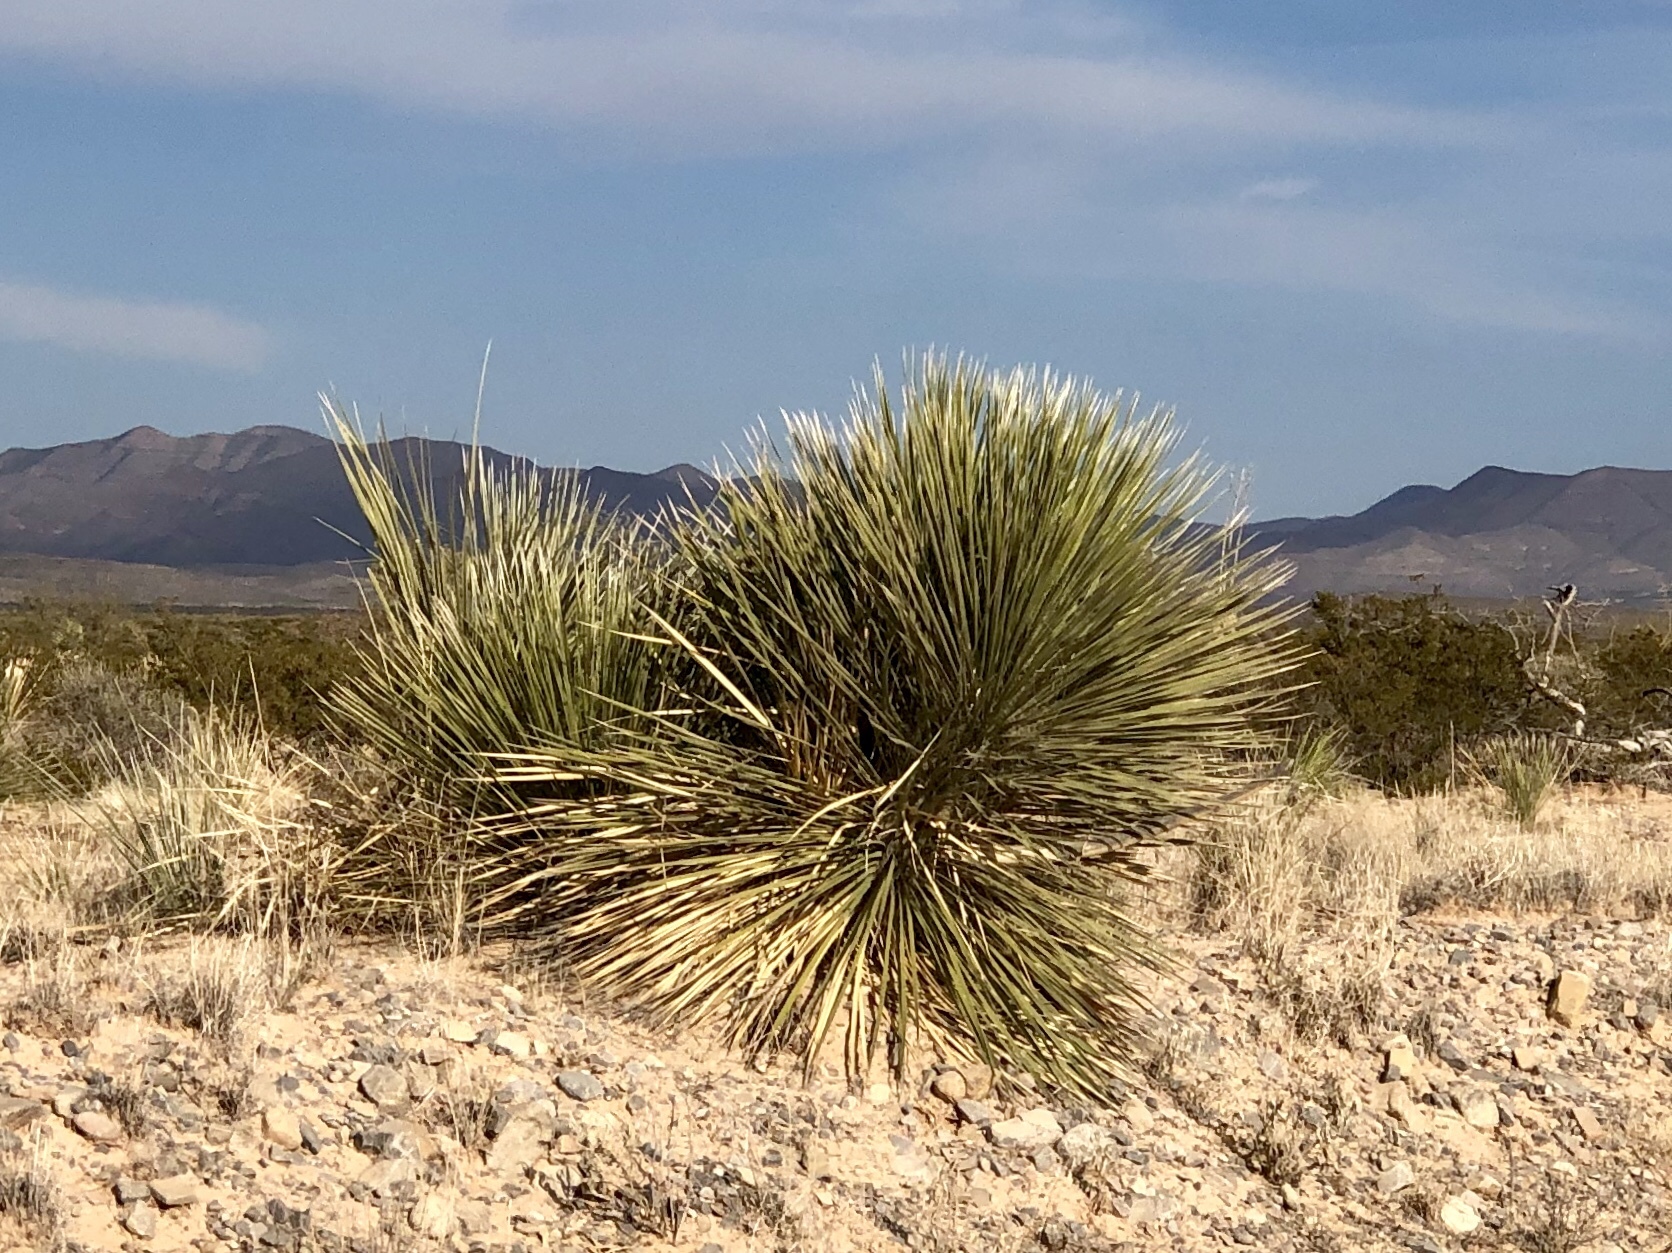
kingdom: Plantae
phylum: Tracheophyta
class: Liliopsida
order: Asparagales
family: Asparagaceae
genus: Yucca
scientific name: Yucca elata
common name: Palmella
